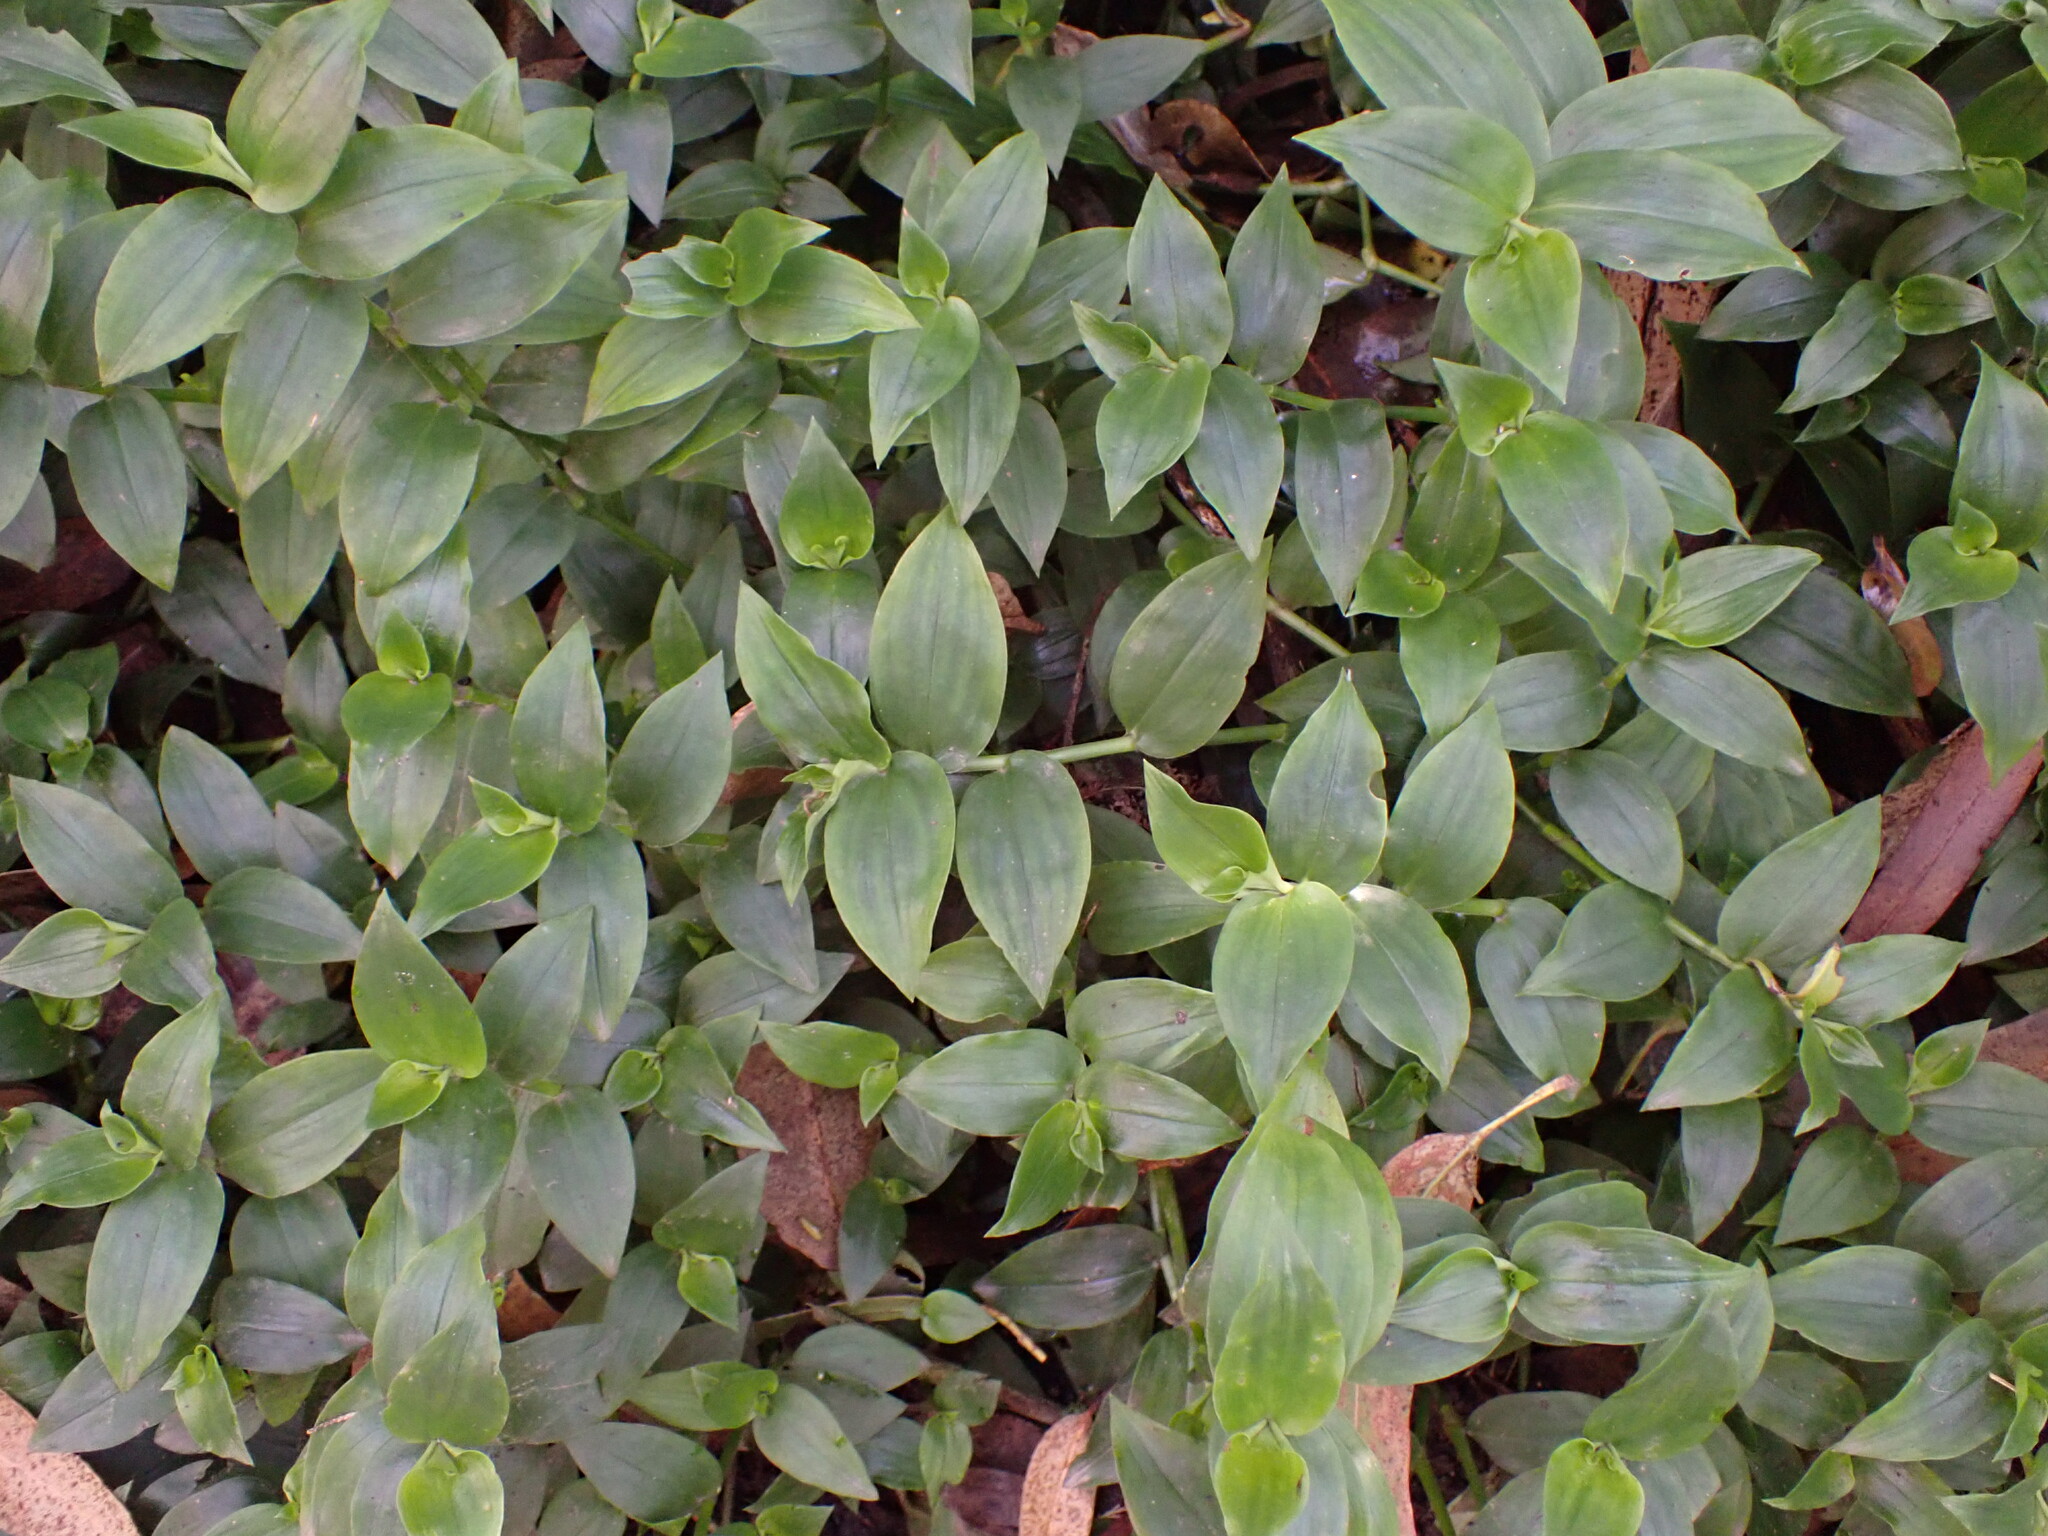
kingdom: Plantae
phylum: Tracheophyta
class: Liliopsida
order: Commelinales
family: Commelinaceae
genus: Tradescantia
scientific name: Tradescantia fluminensis
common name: Wandering-jew
